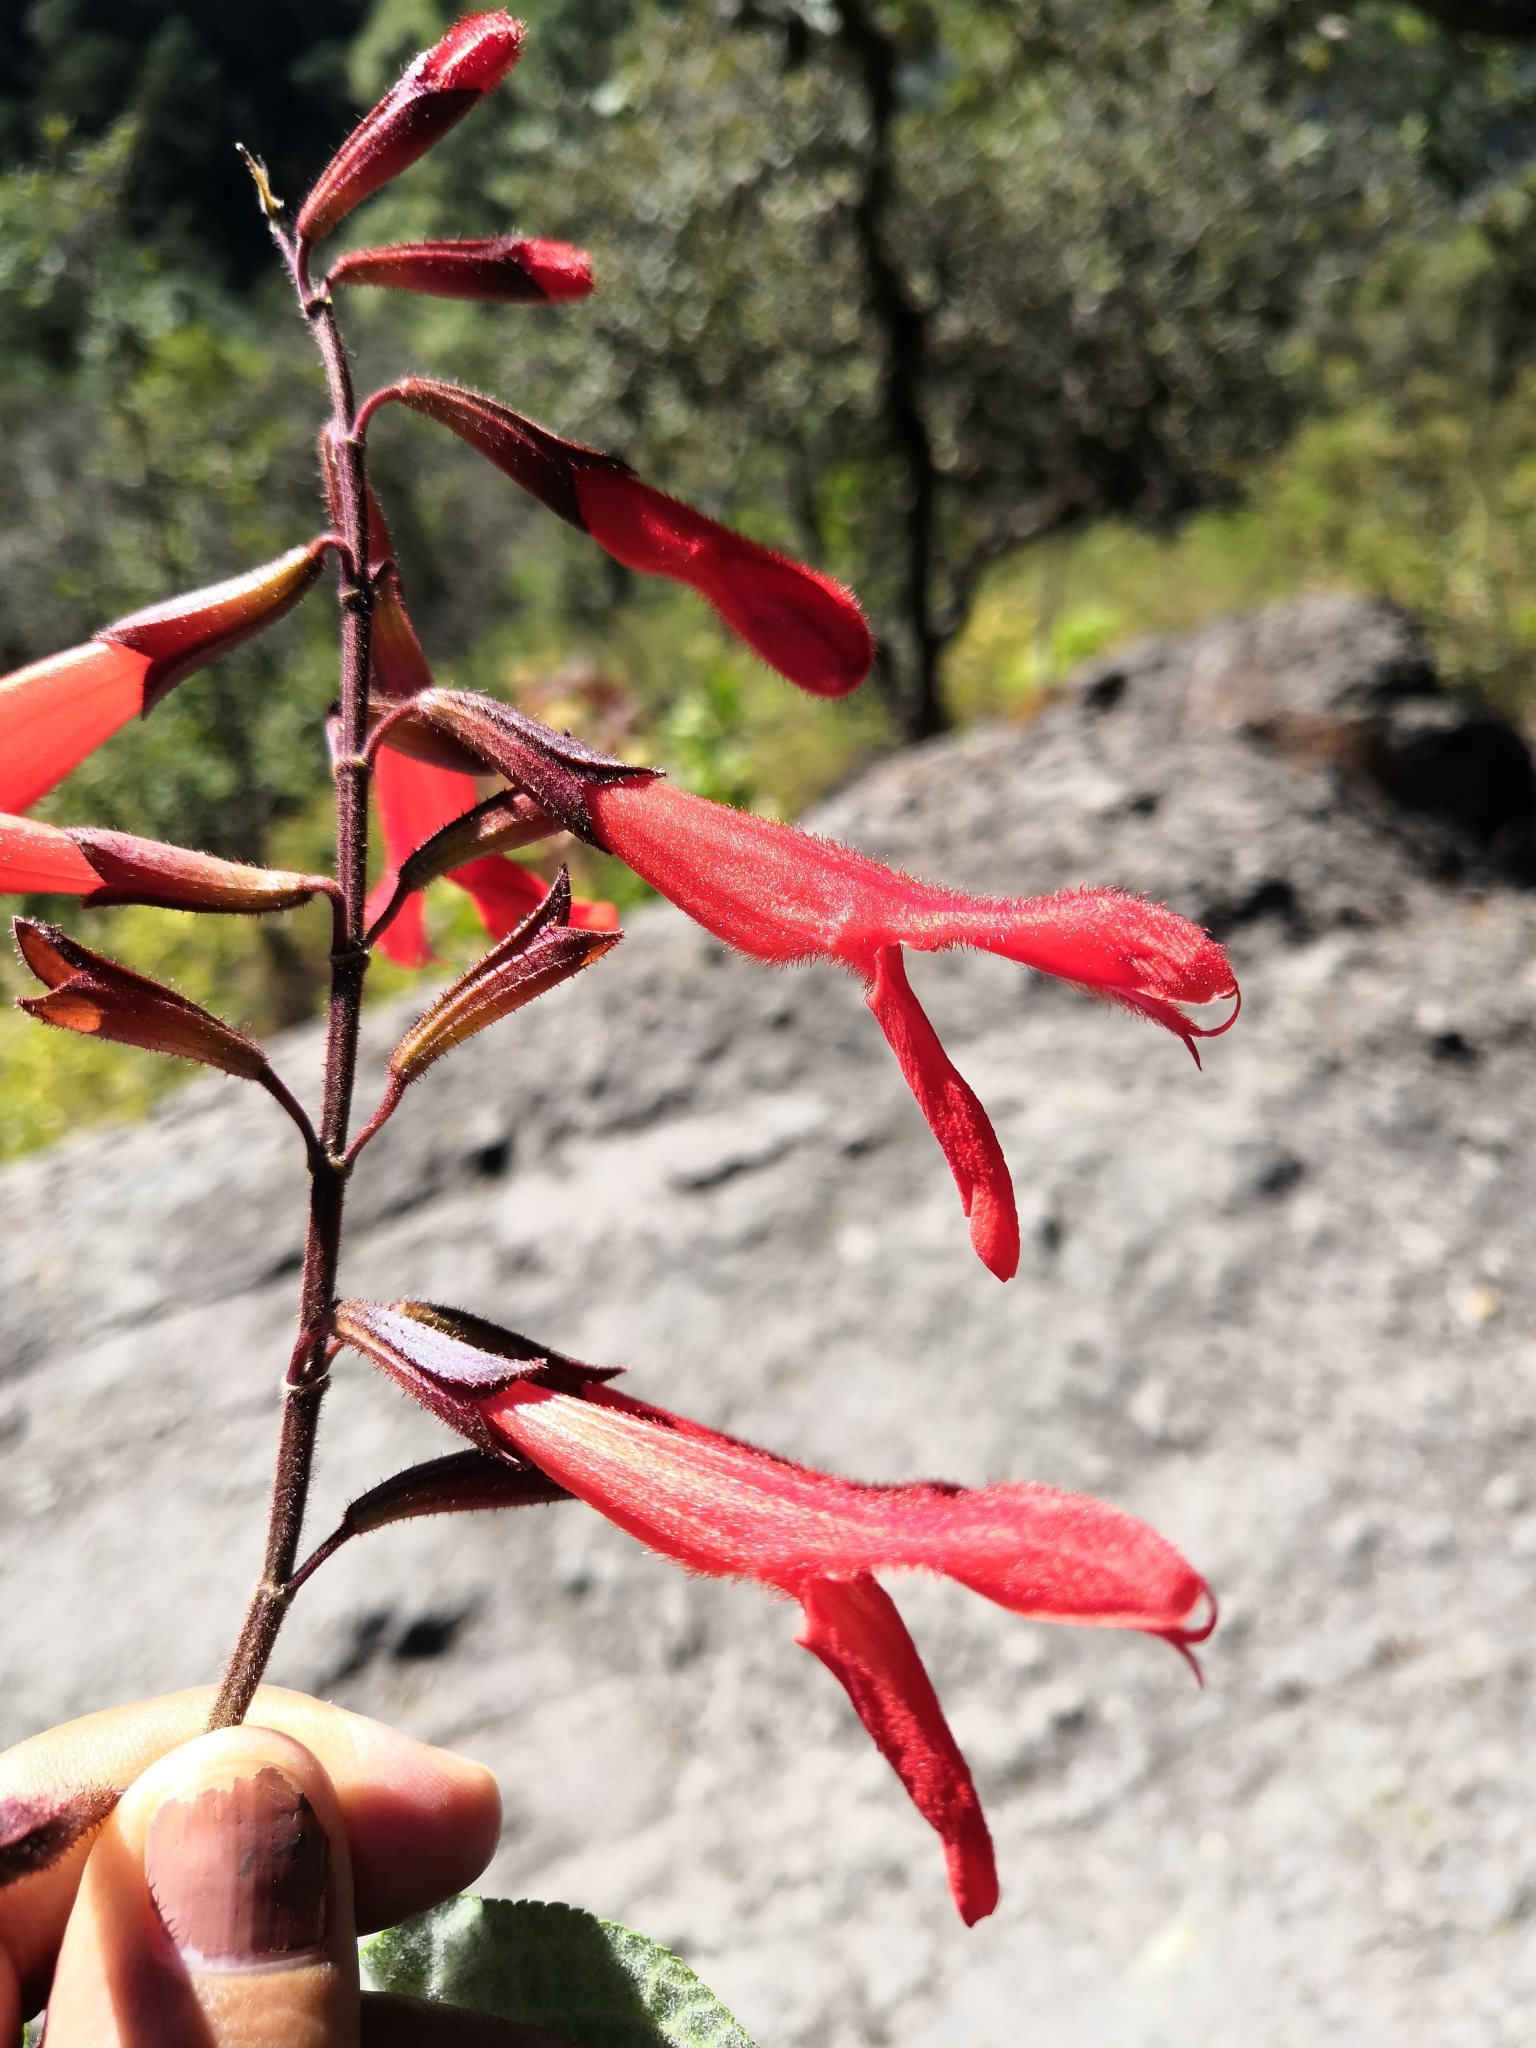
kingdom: Plantae
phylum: Tracheophyta
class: Magnoliopsida
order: Lamiales
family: Lamiaceae
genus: Salvia
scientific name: Salvia gesneriiflora
